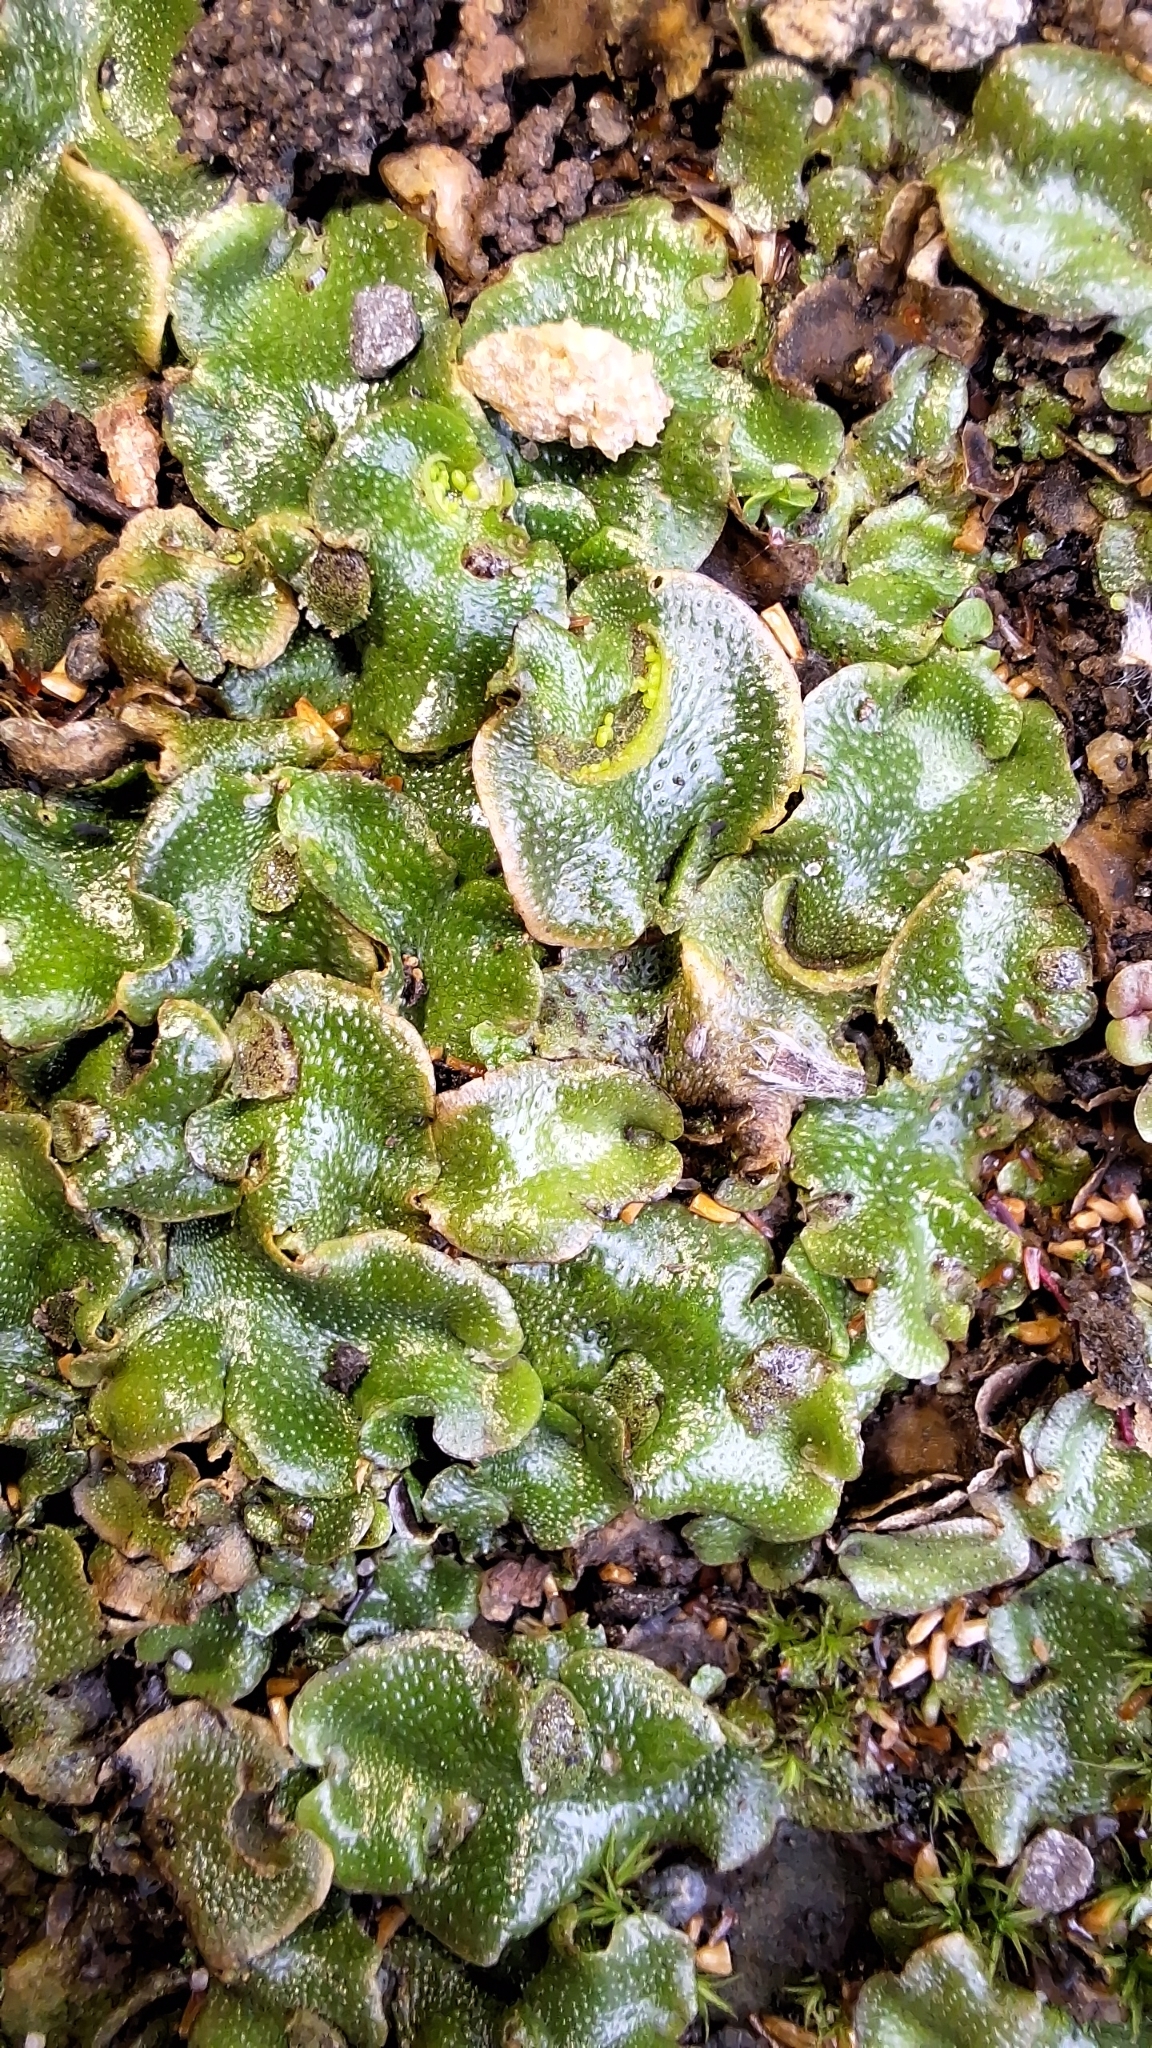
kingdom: Plantae
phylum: Marchantiophyta
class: Marchantiopsida
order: Lunulariales
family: Lunulariaceae
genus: Lunularia
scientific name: Lunularia cruciata
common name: Crescent-cup liverwort
